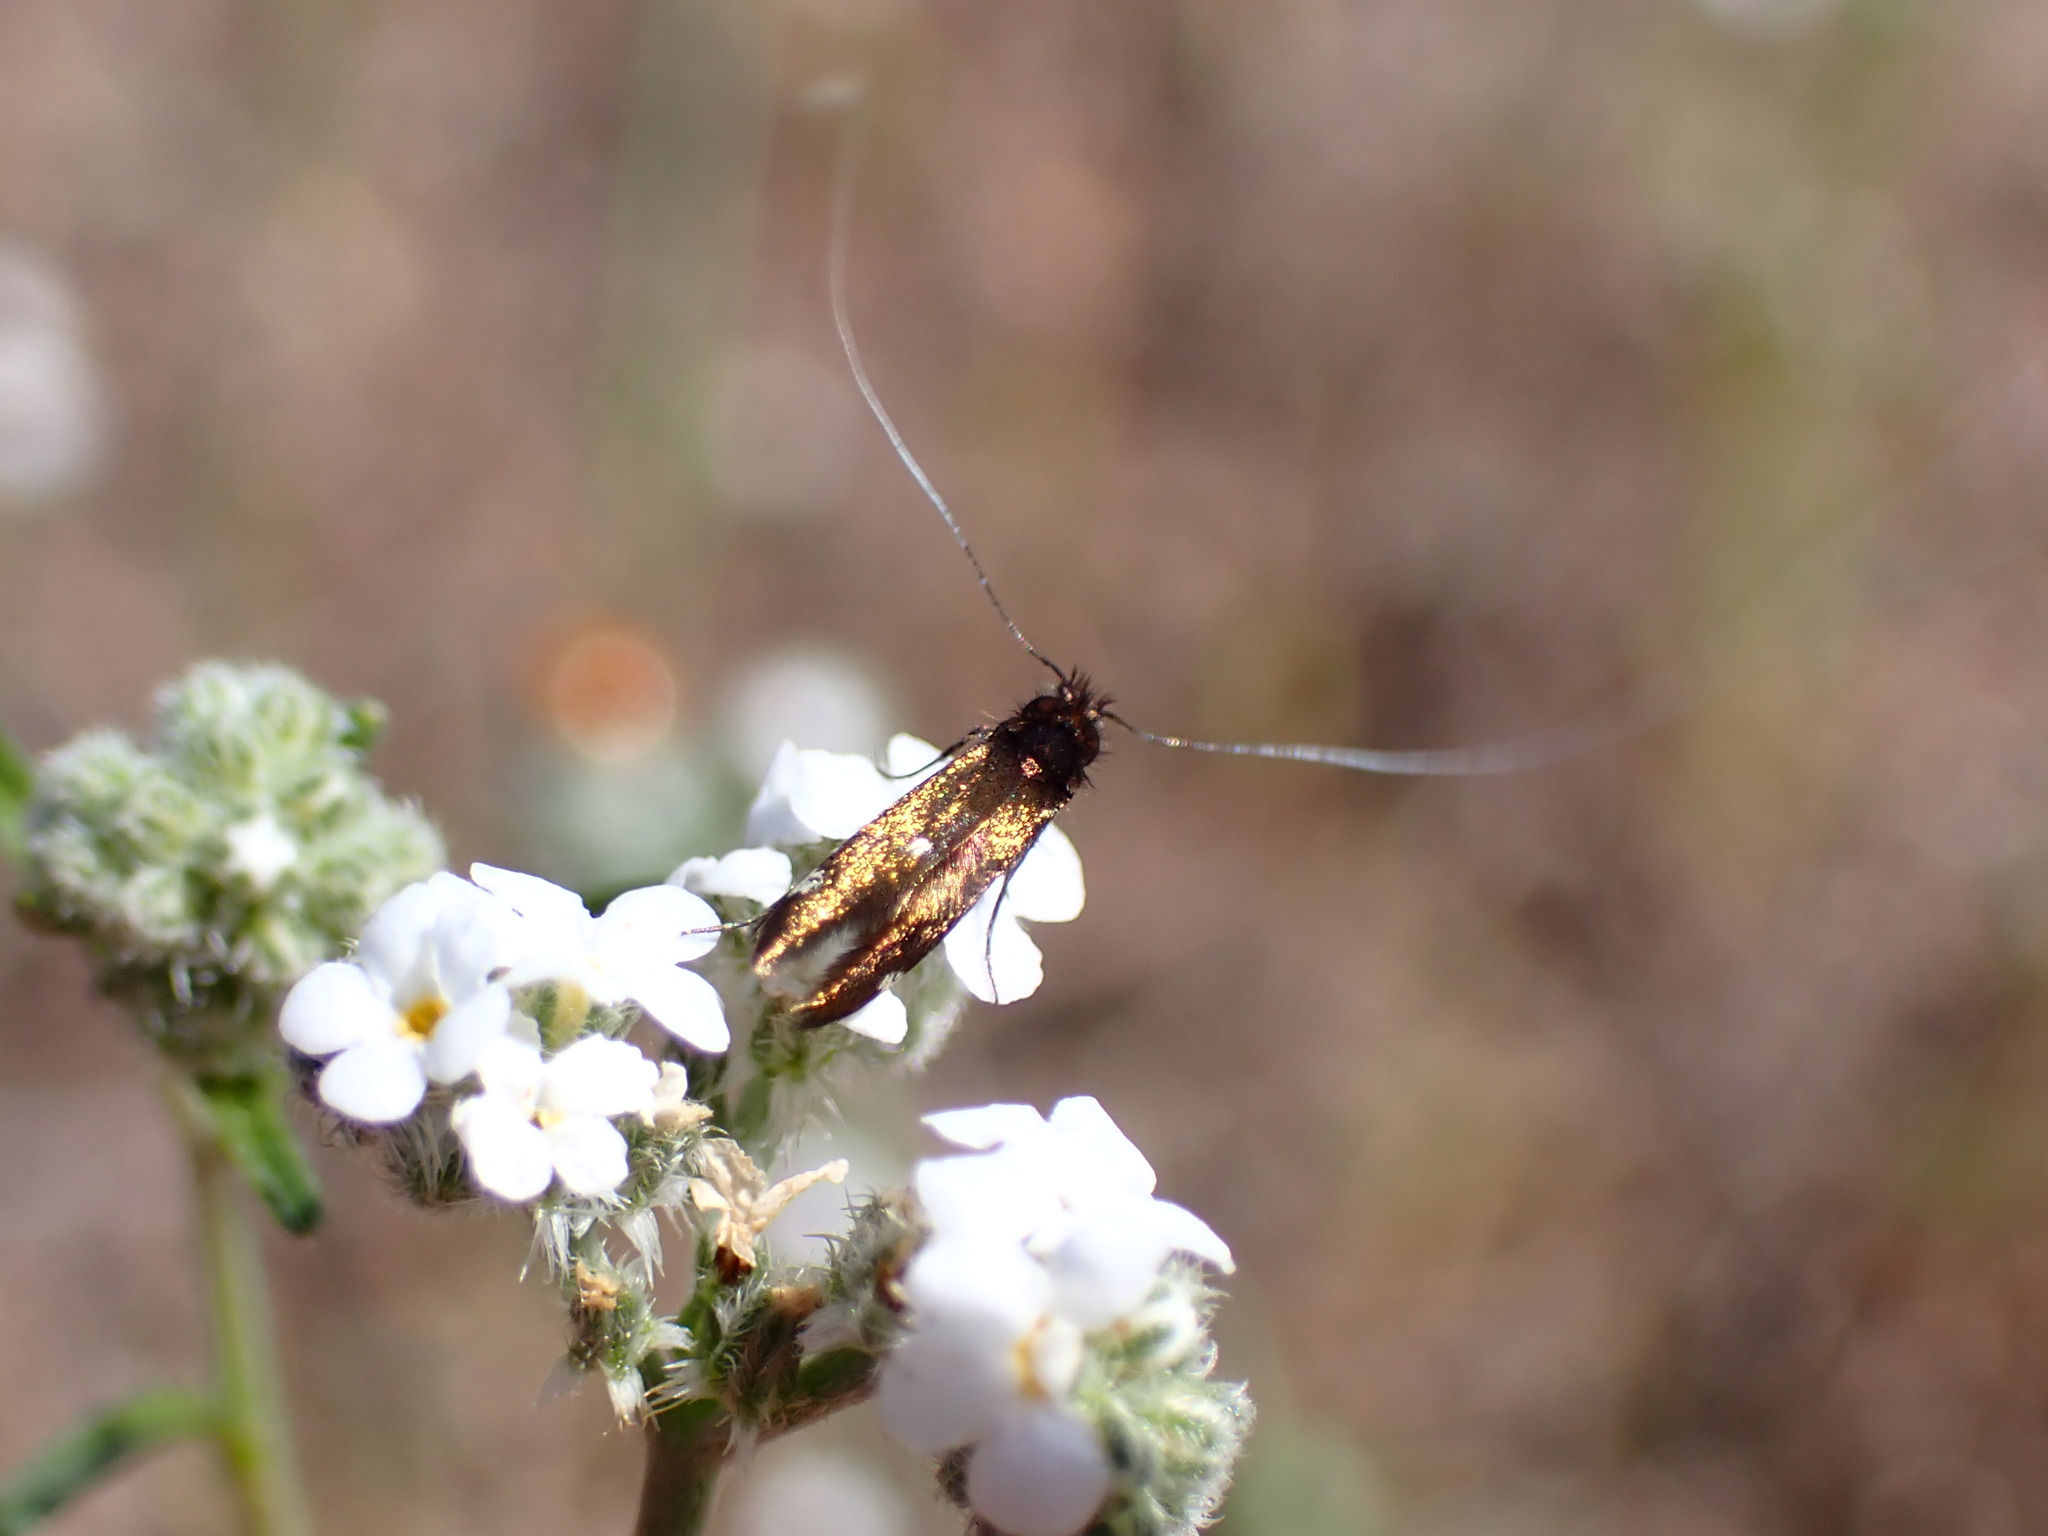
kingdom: Animalia
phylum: Arthropoda
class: Insecta
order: Lepidoptera
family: Adelidae
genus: Adela
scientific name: Adela flammeusella
